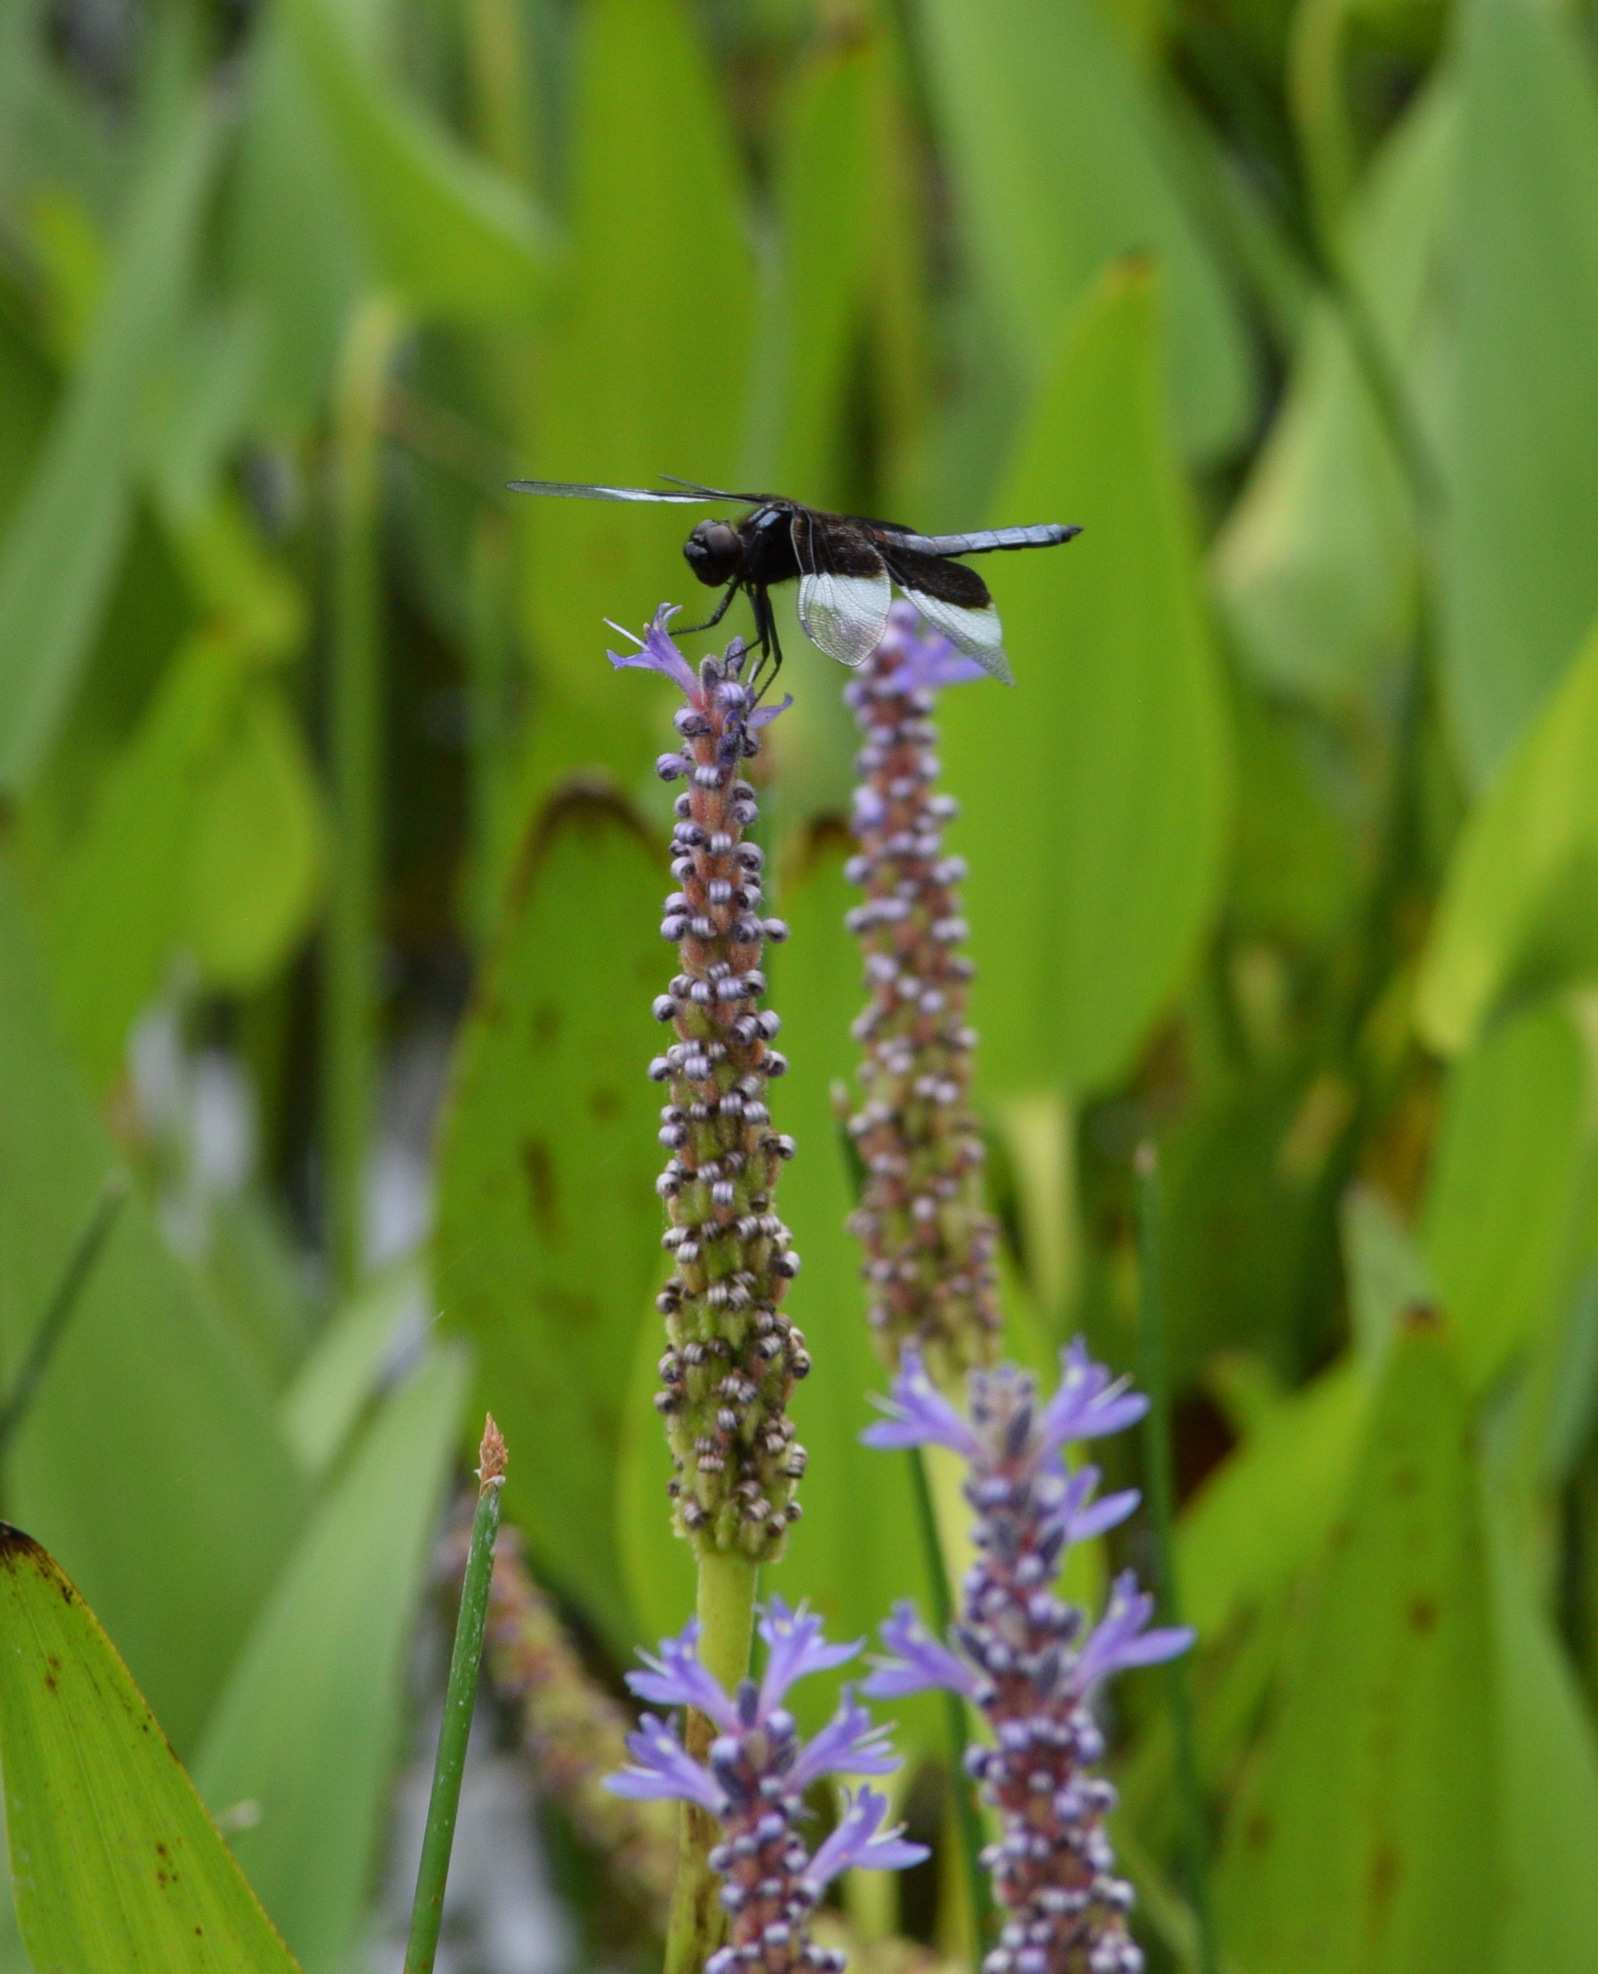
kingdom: Plantae
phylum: Tracheophyta
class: Liliopsida
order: Commelinales
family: Pontederiaceae
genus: Pontederia
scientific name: Pontederia cordata
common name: Pickerelweed
